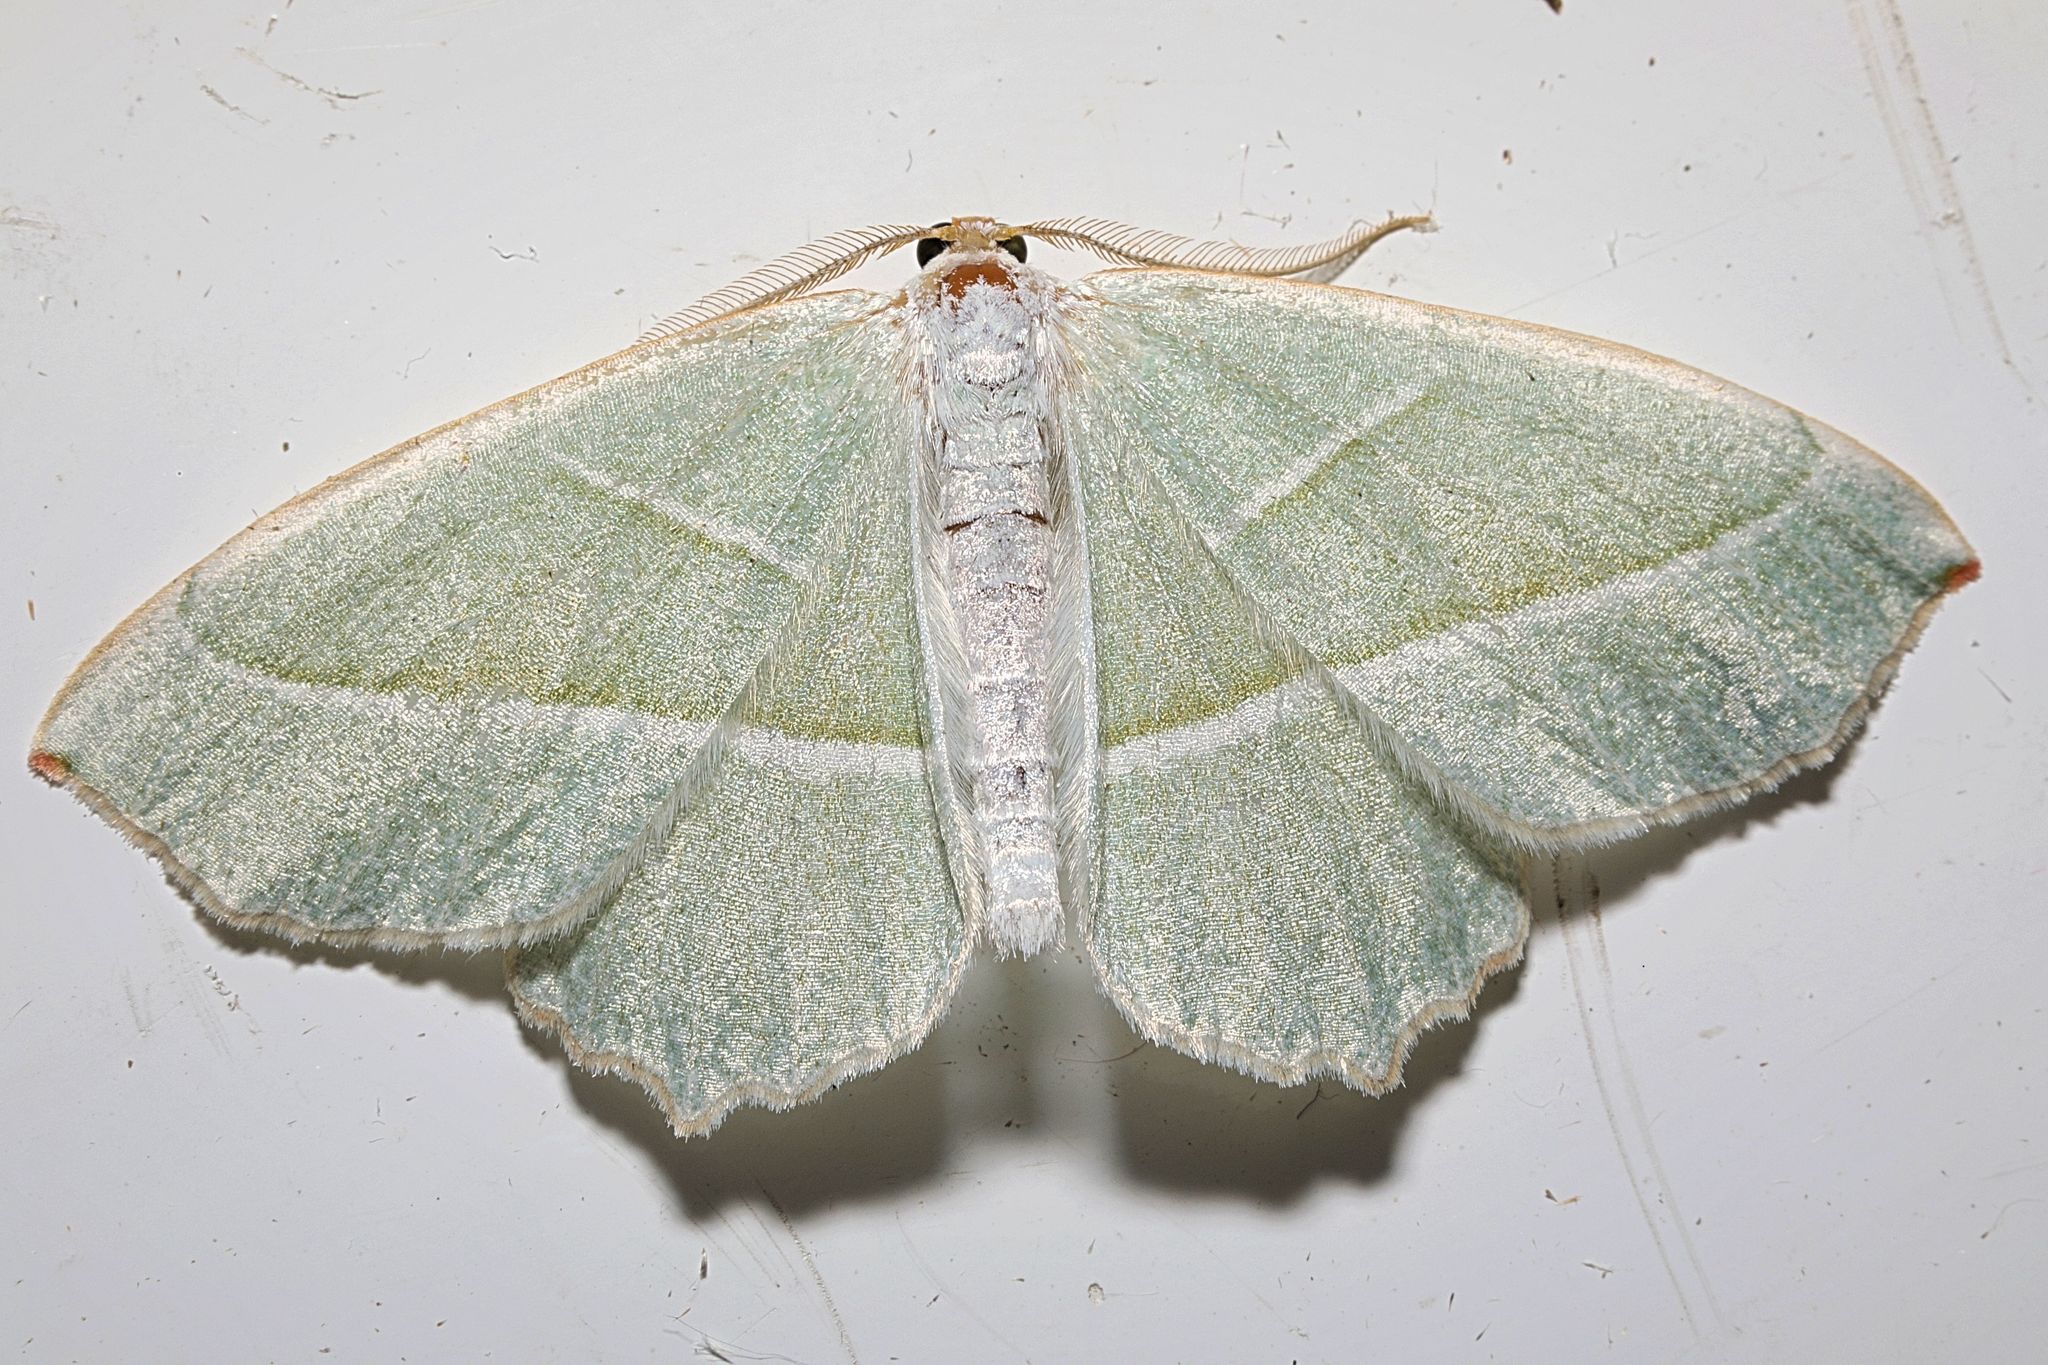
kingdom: Animalia
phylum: Arthropoda
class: Insecta
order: Lepidoptera
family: Geometridae
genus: Campaea
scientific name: Campaea margaritaria
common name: Light emerald
